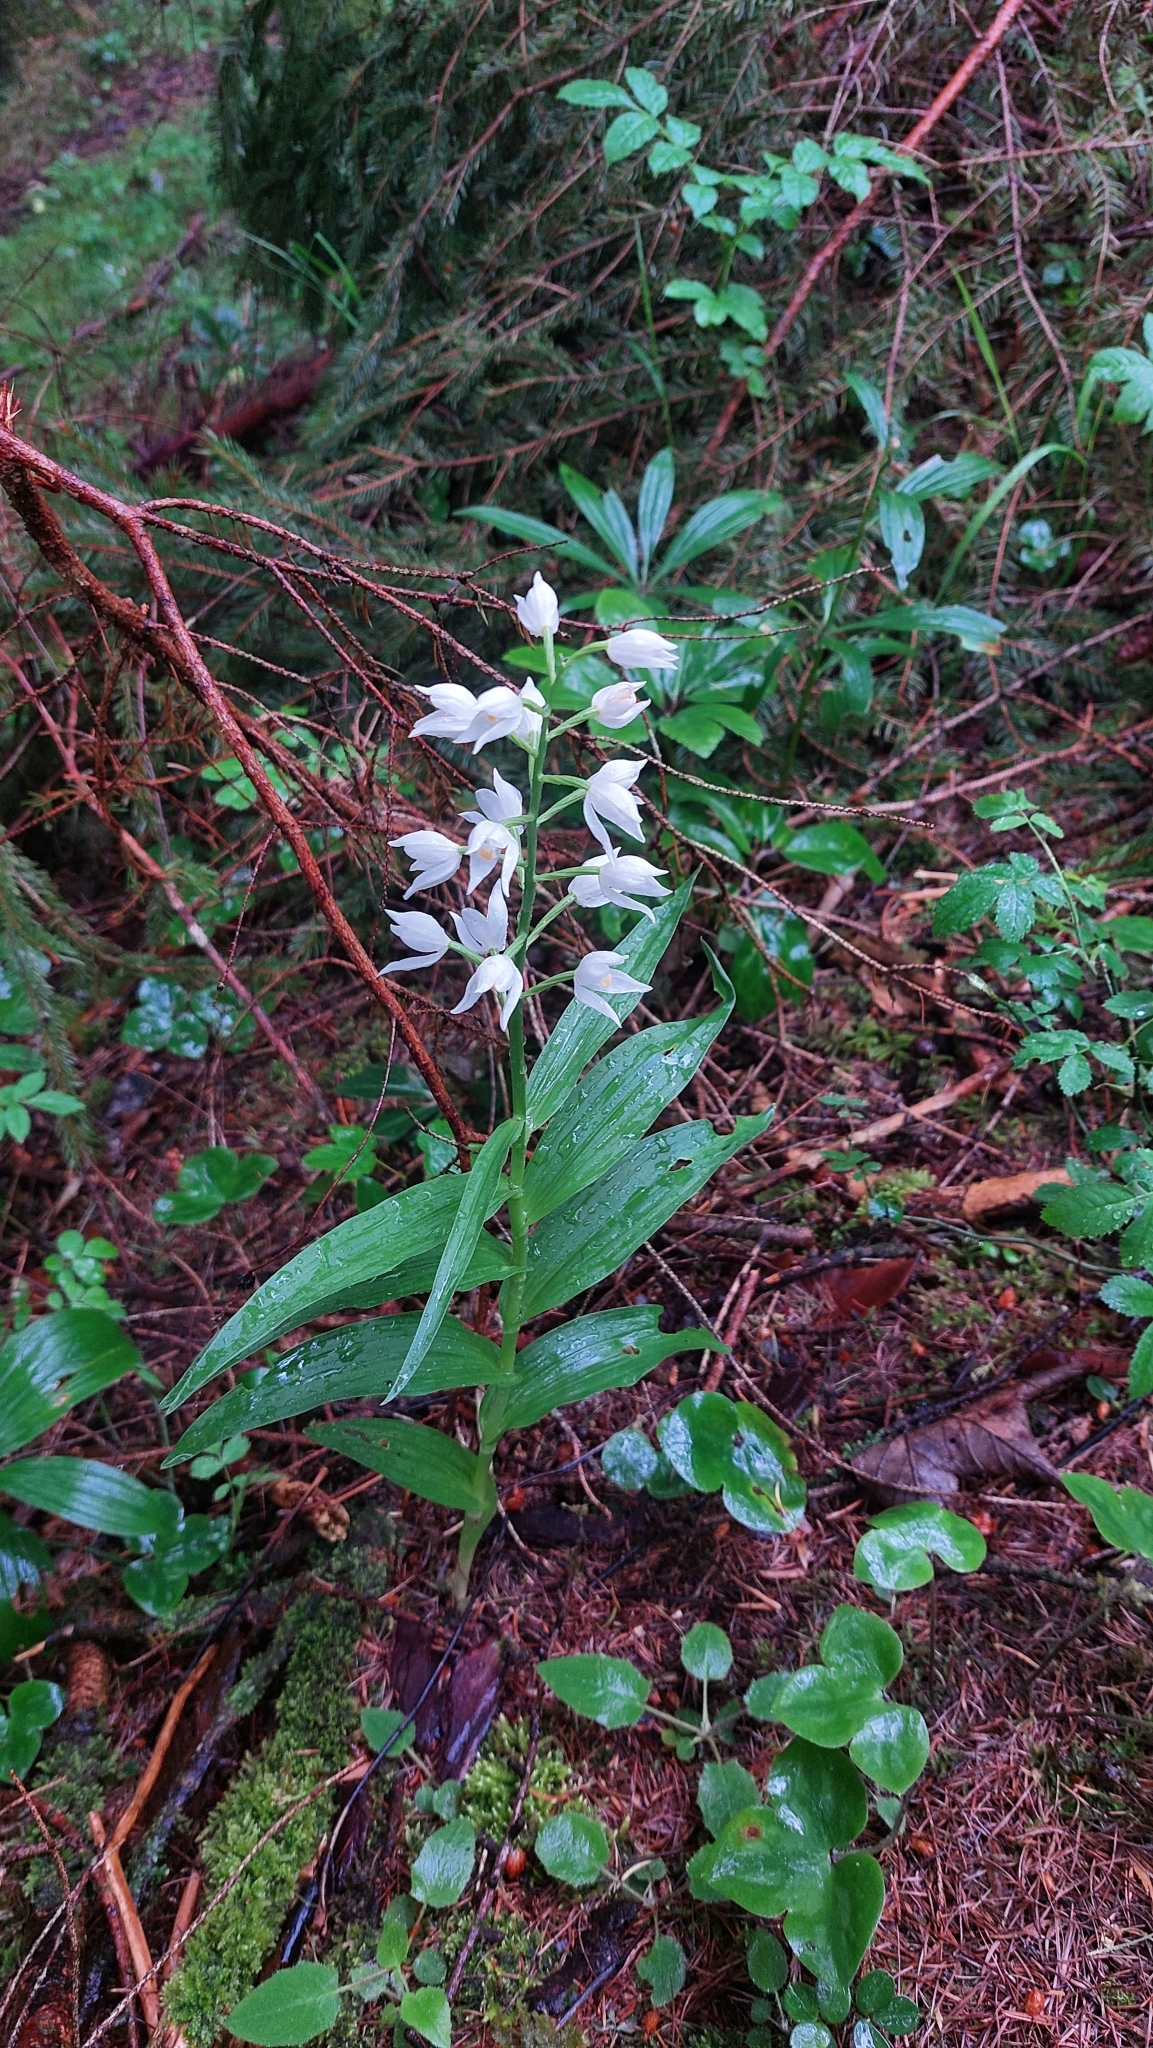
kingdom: Plantae
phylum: Tracheophyta
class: Liliopsida
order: Asparagales
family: Orchidaceae
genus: Cephalanthera
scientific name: Cephalanthera longifolia
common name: Narrow-leaved helleborine
